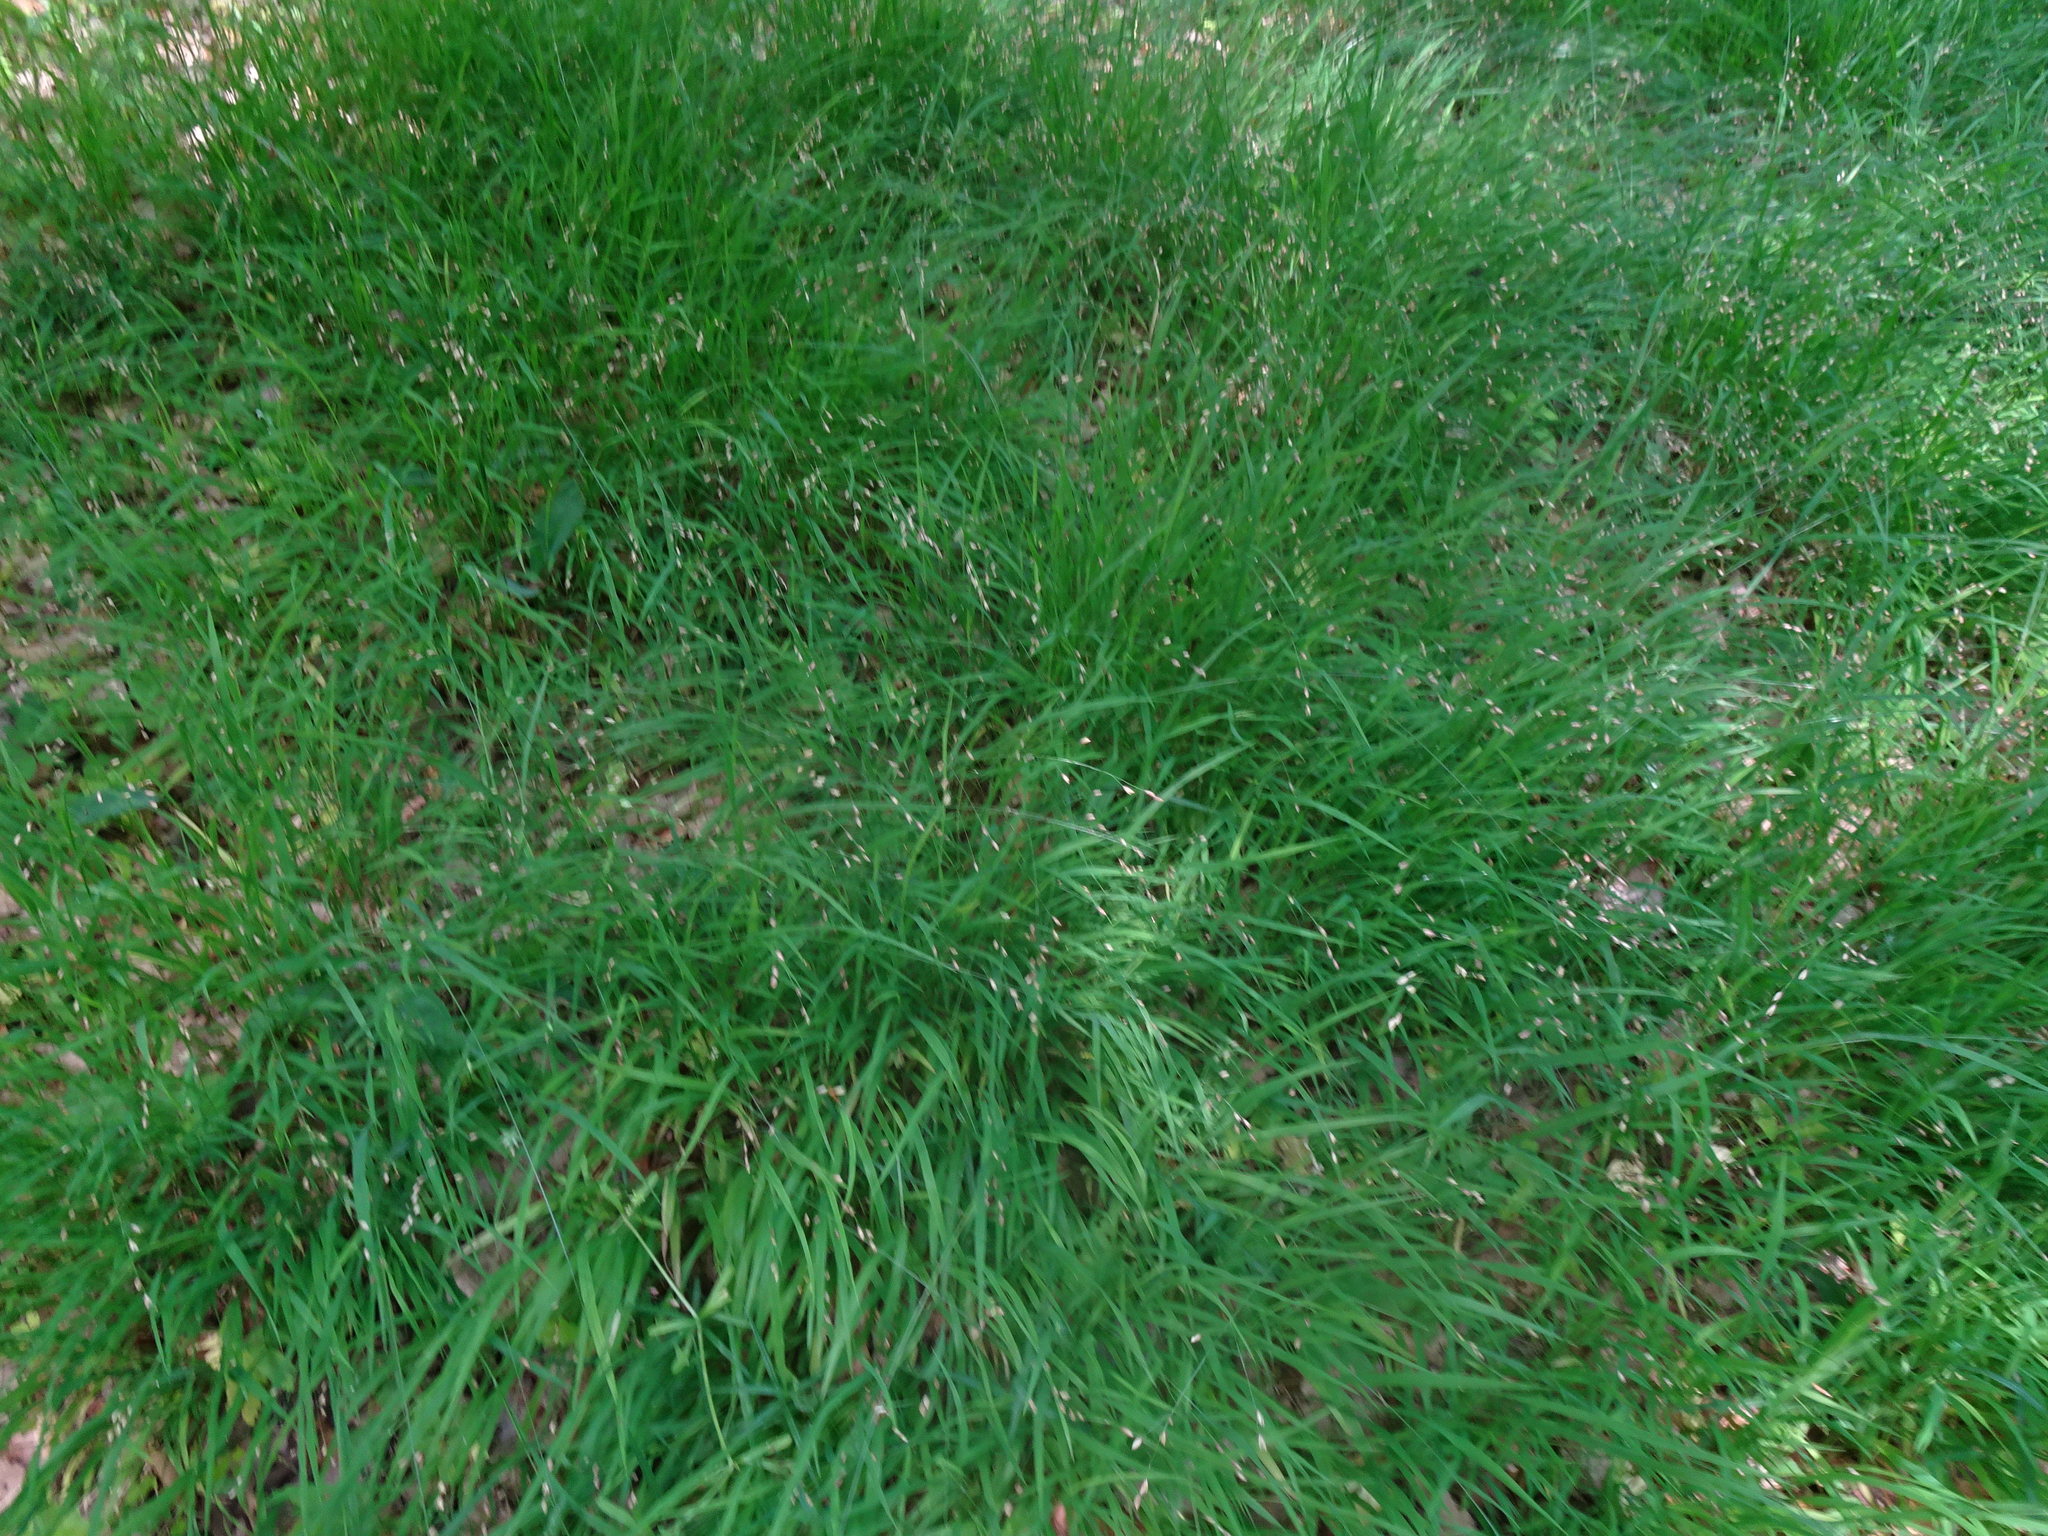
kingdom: Plantae
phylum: Tracheophyta
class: Liliopsida
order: Poales
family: Poaceae
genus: Melica
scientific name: Melica uniflora
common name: Wood melick
